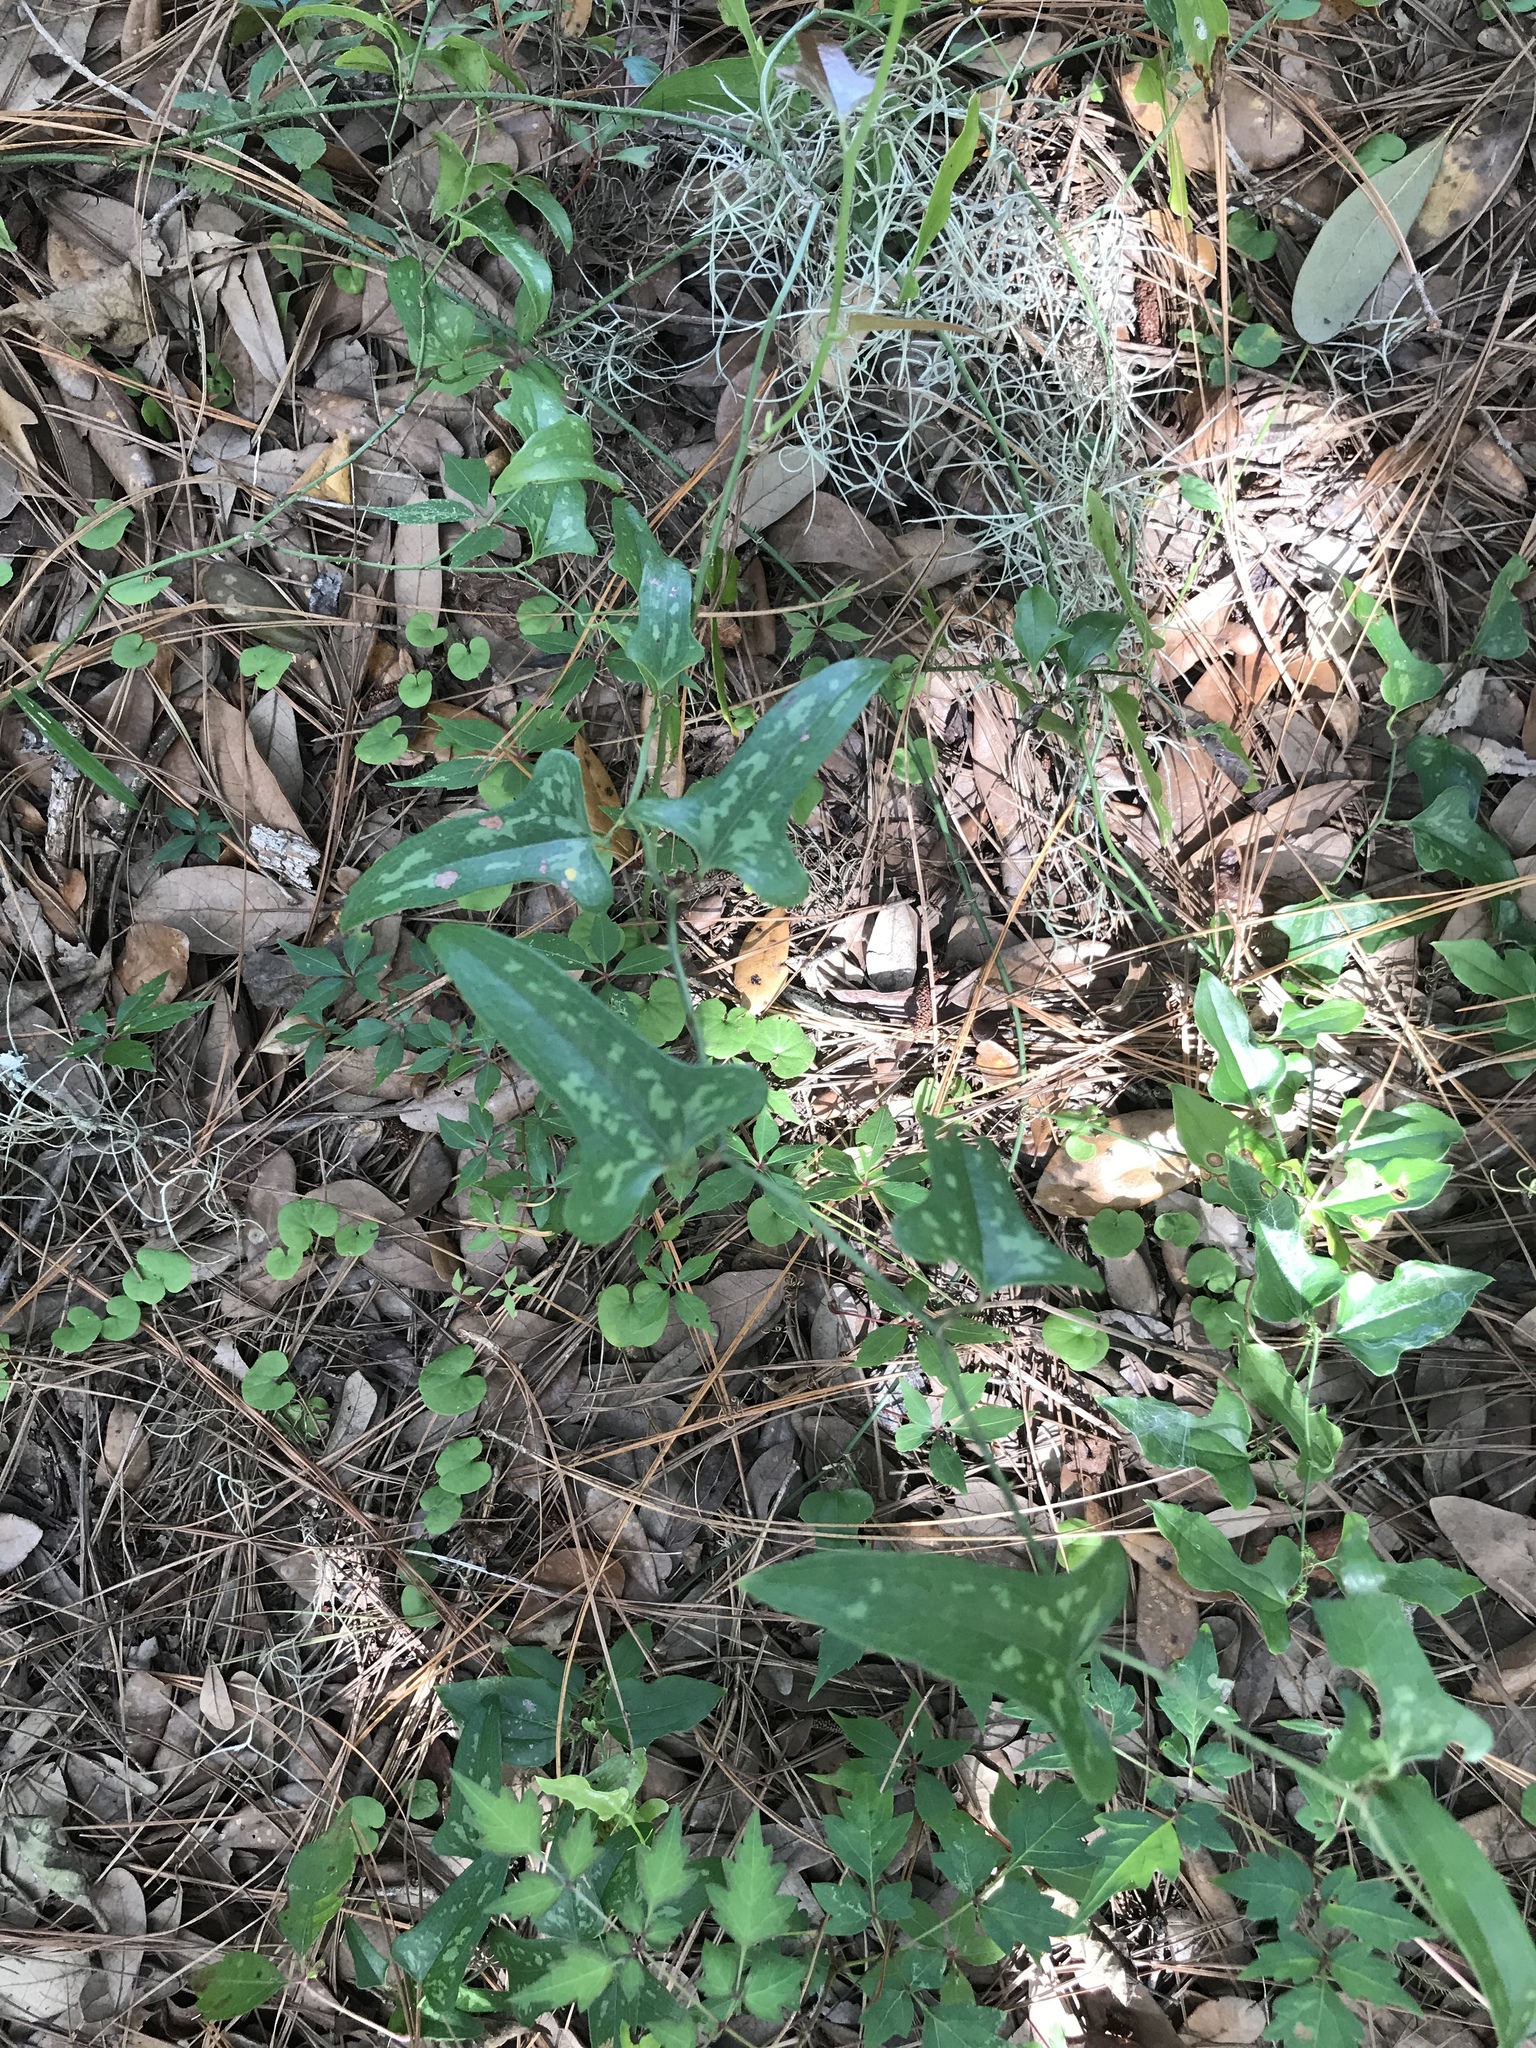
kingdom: Plantae
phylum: Tracheophyta
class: Liliopsida
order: Liliales
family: Smilacaceae
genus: Smilax
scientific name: Smilax bona-nox
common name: Catbrier
